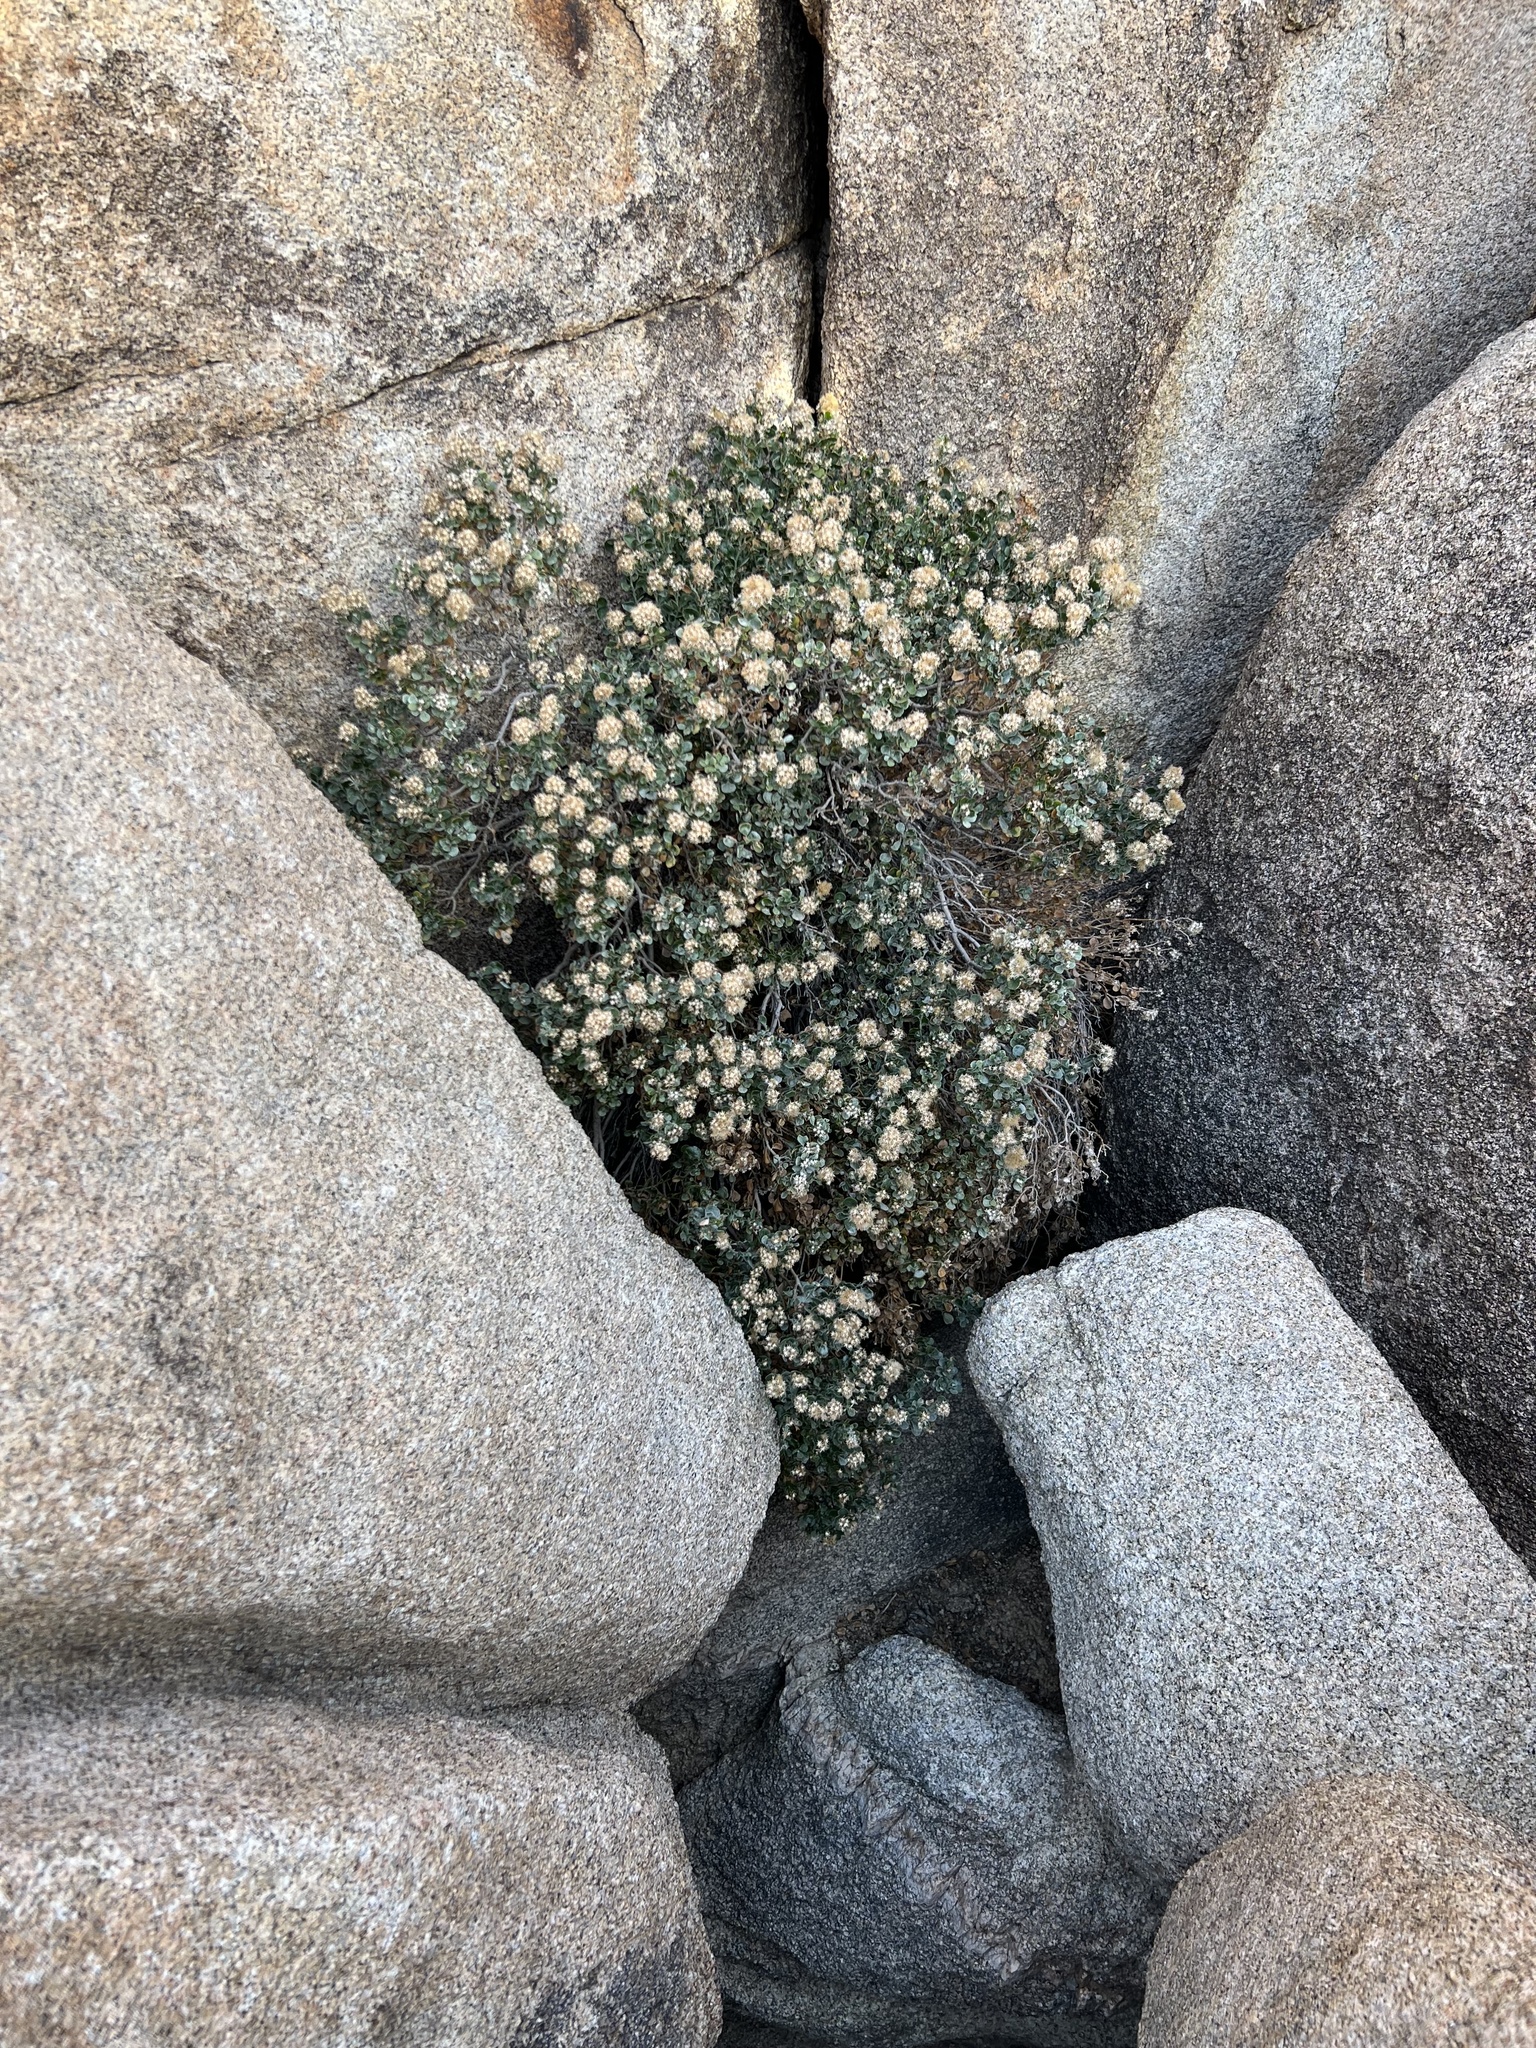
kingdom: Plantae
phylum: Tracheophyta
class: Magnoliopsida
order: Asterales
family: Asteraceae
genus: Ericameria
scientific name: Ericameria cuneata
